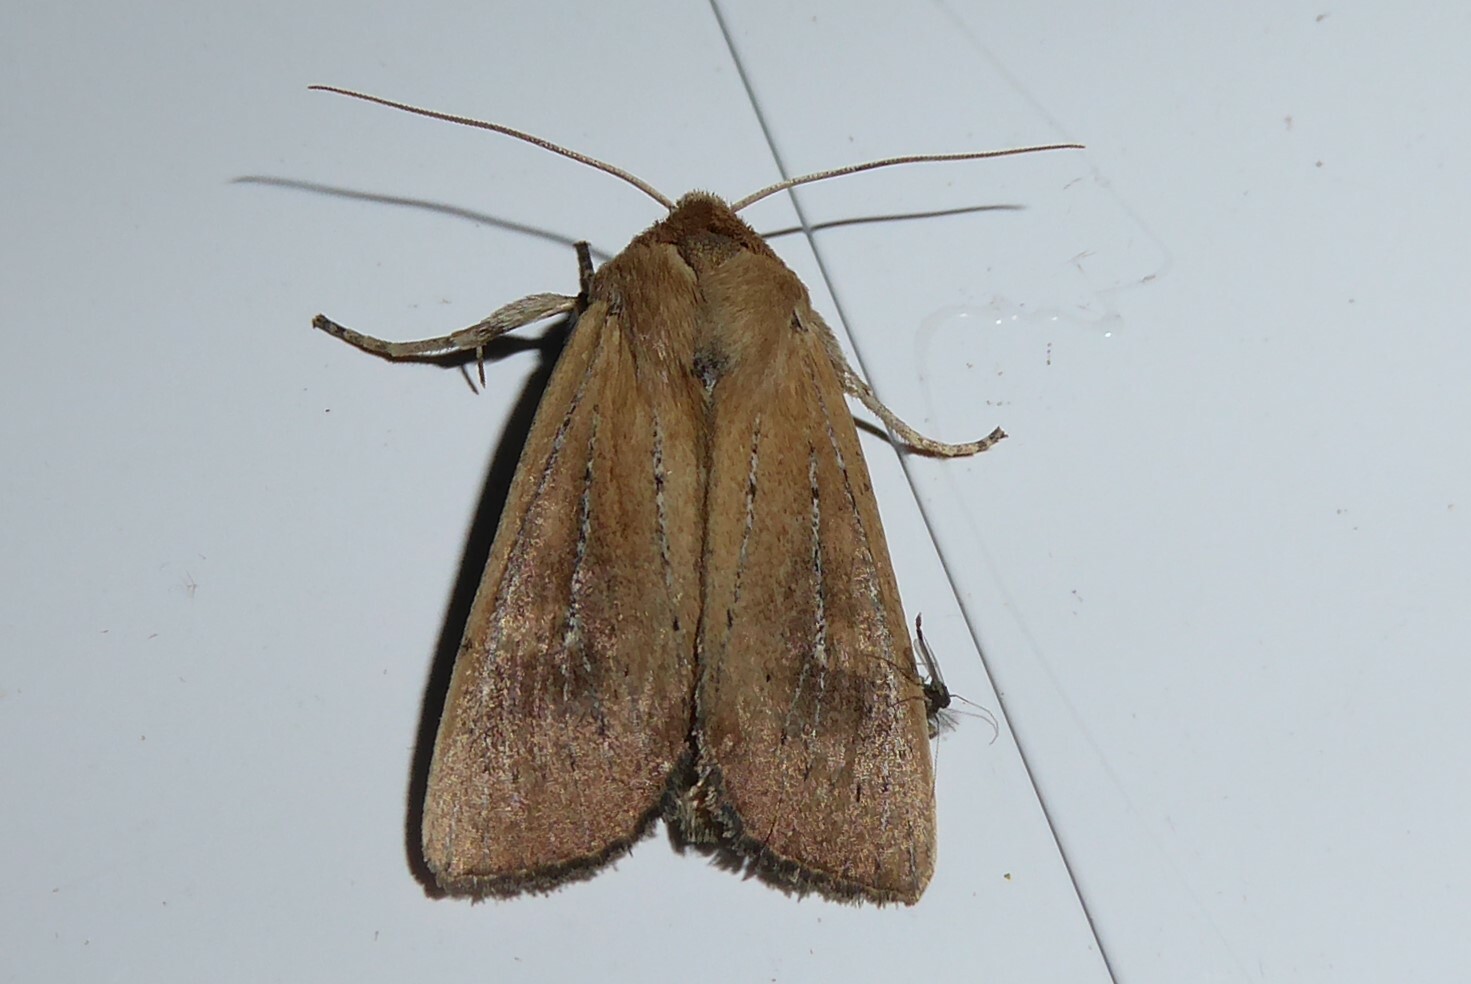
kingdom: Animalia
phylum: Arthropoda
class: Insecta
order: Lepidoptera
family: Noctuidae
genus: Ichneutica
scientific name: Ichneutica blenheimensis
